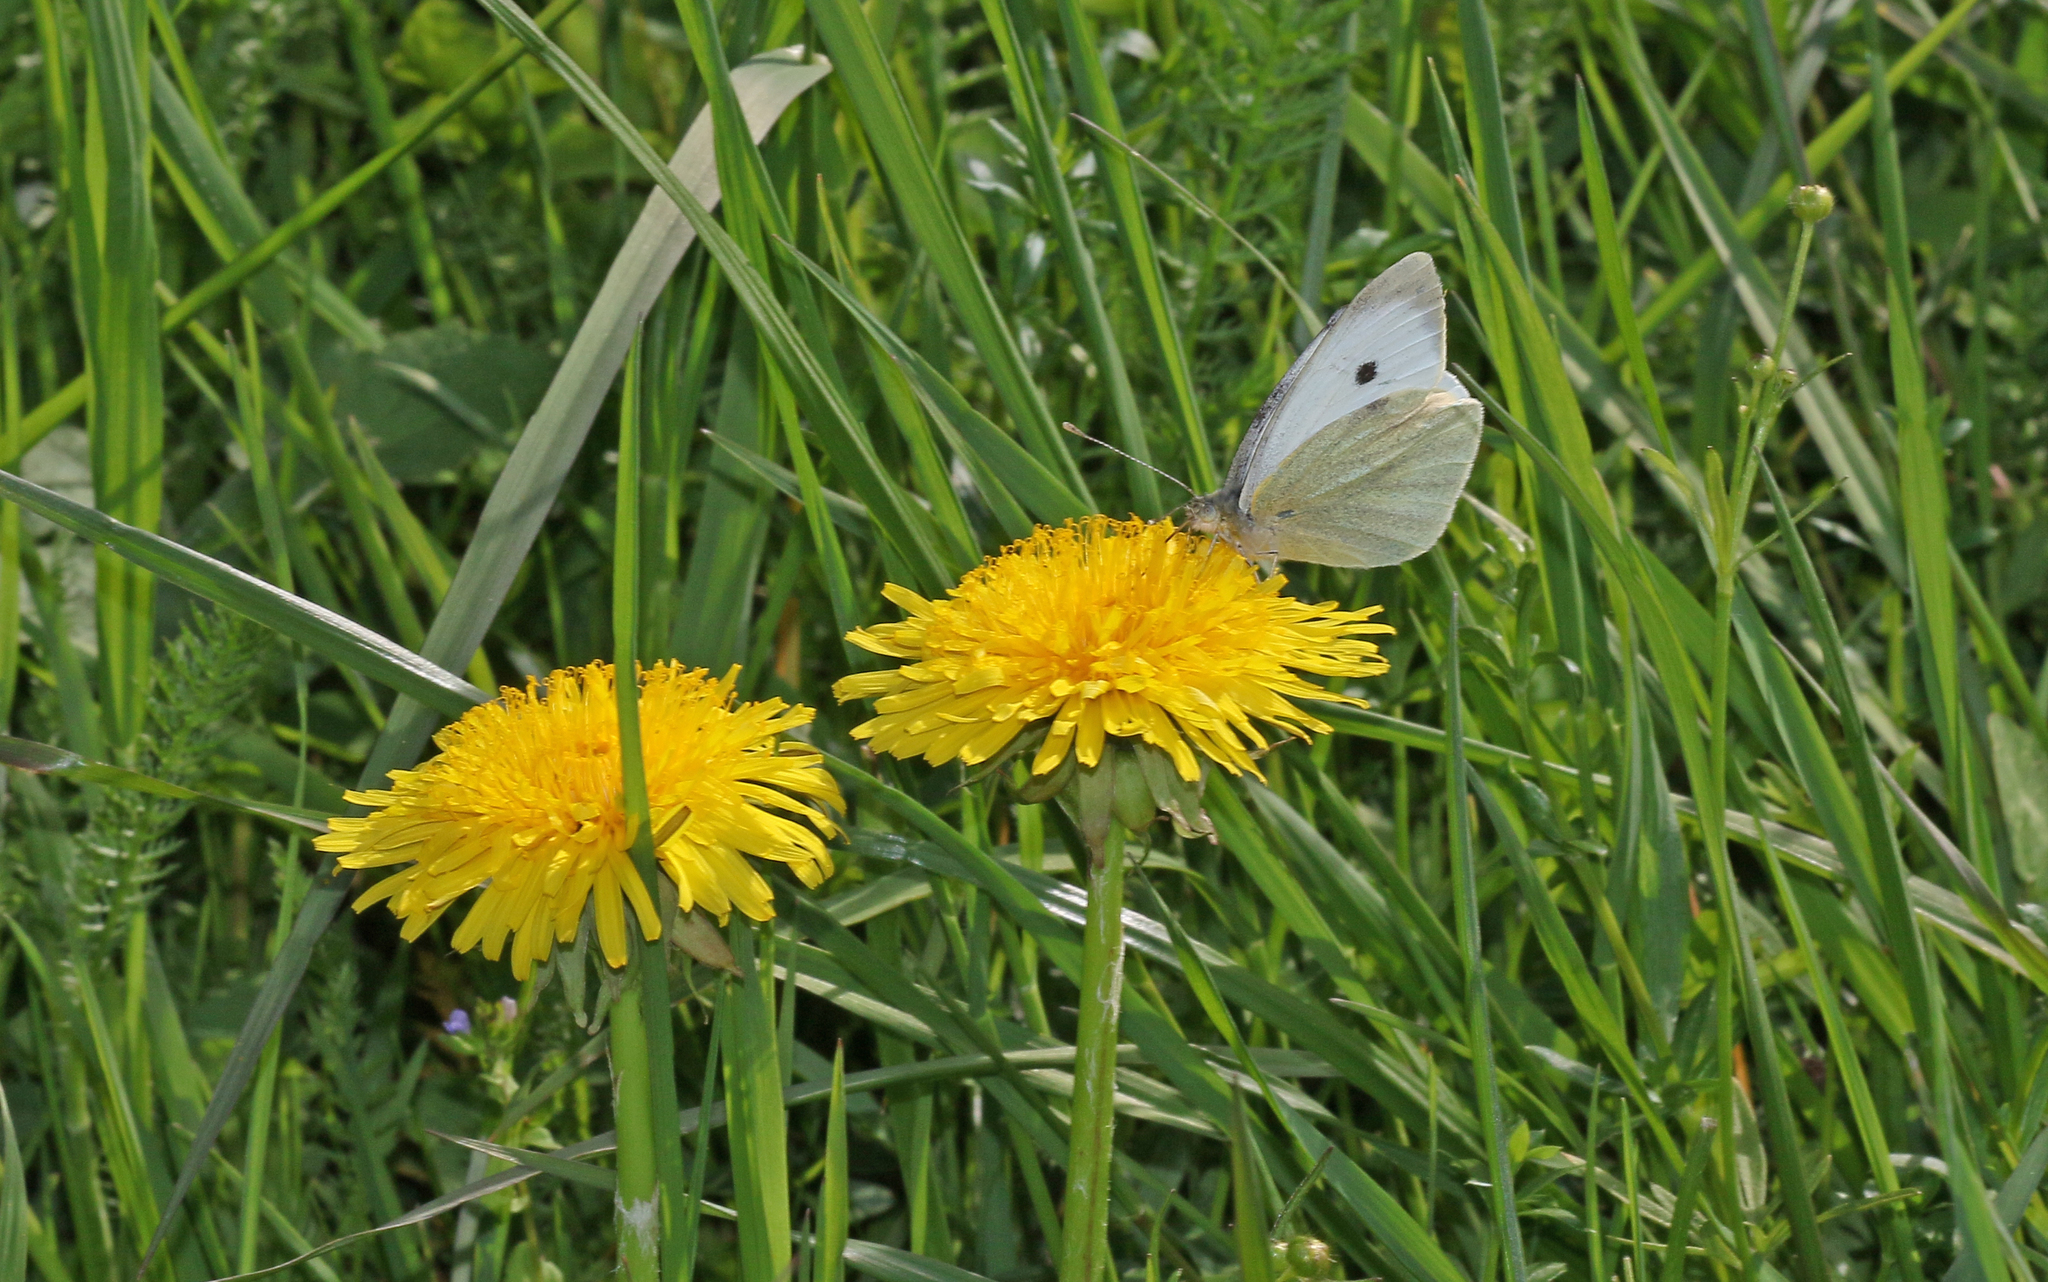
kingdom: Animalia
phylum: Arthropoda
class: Insecta
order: Lepidoptera
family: Pieridae
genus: Pieris
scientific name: Pieris brassicae
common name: Large white
